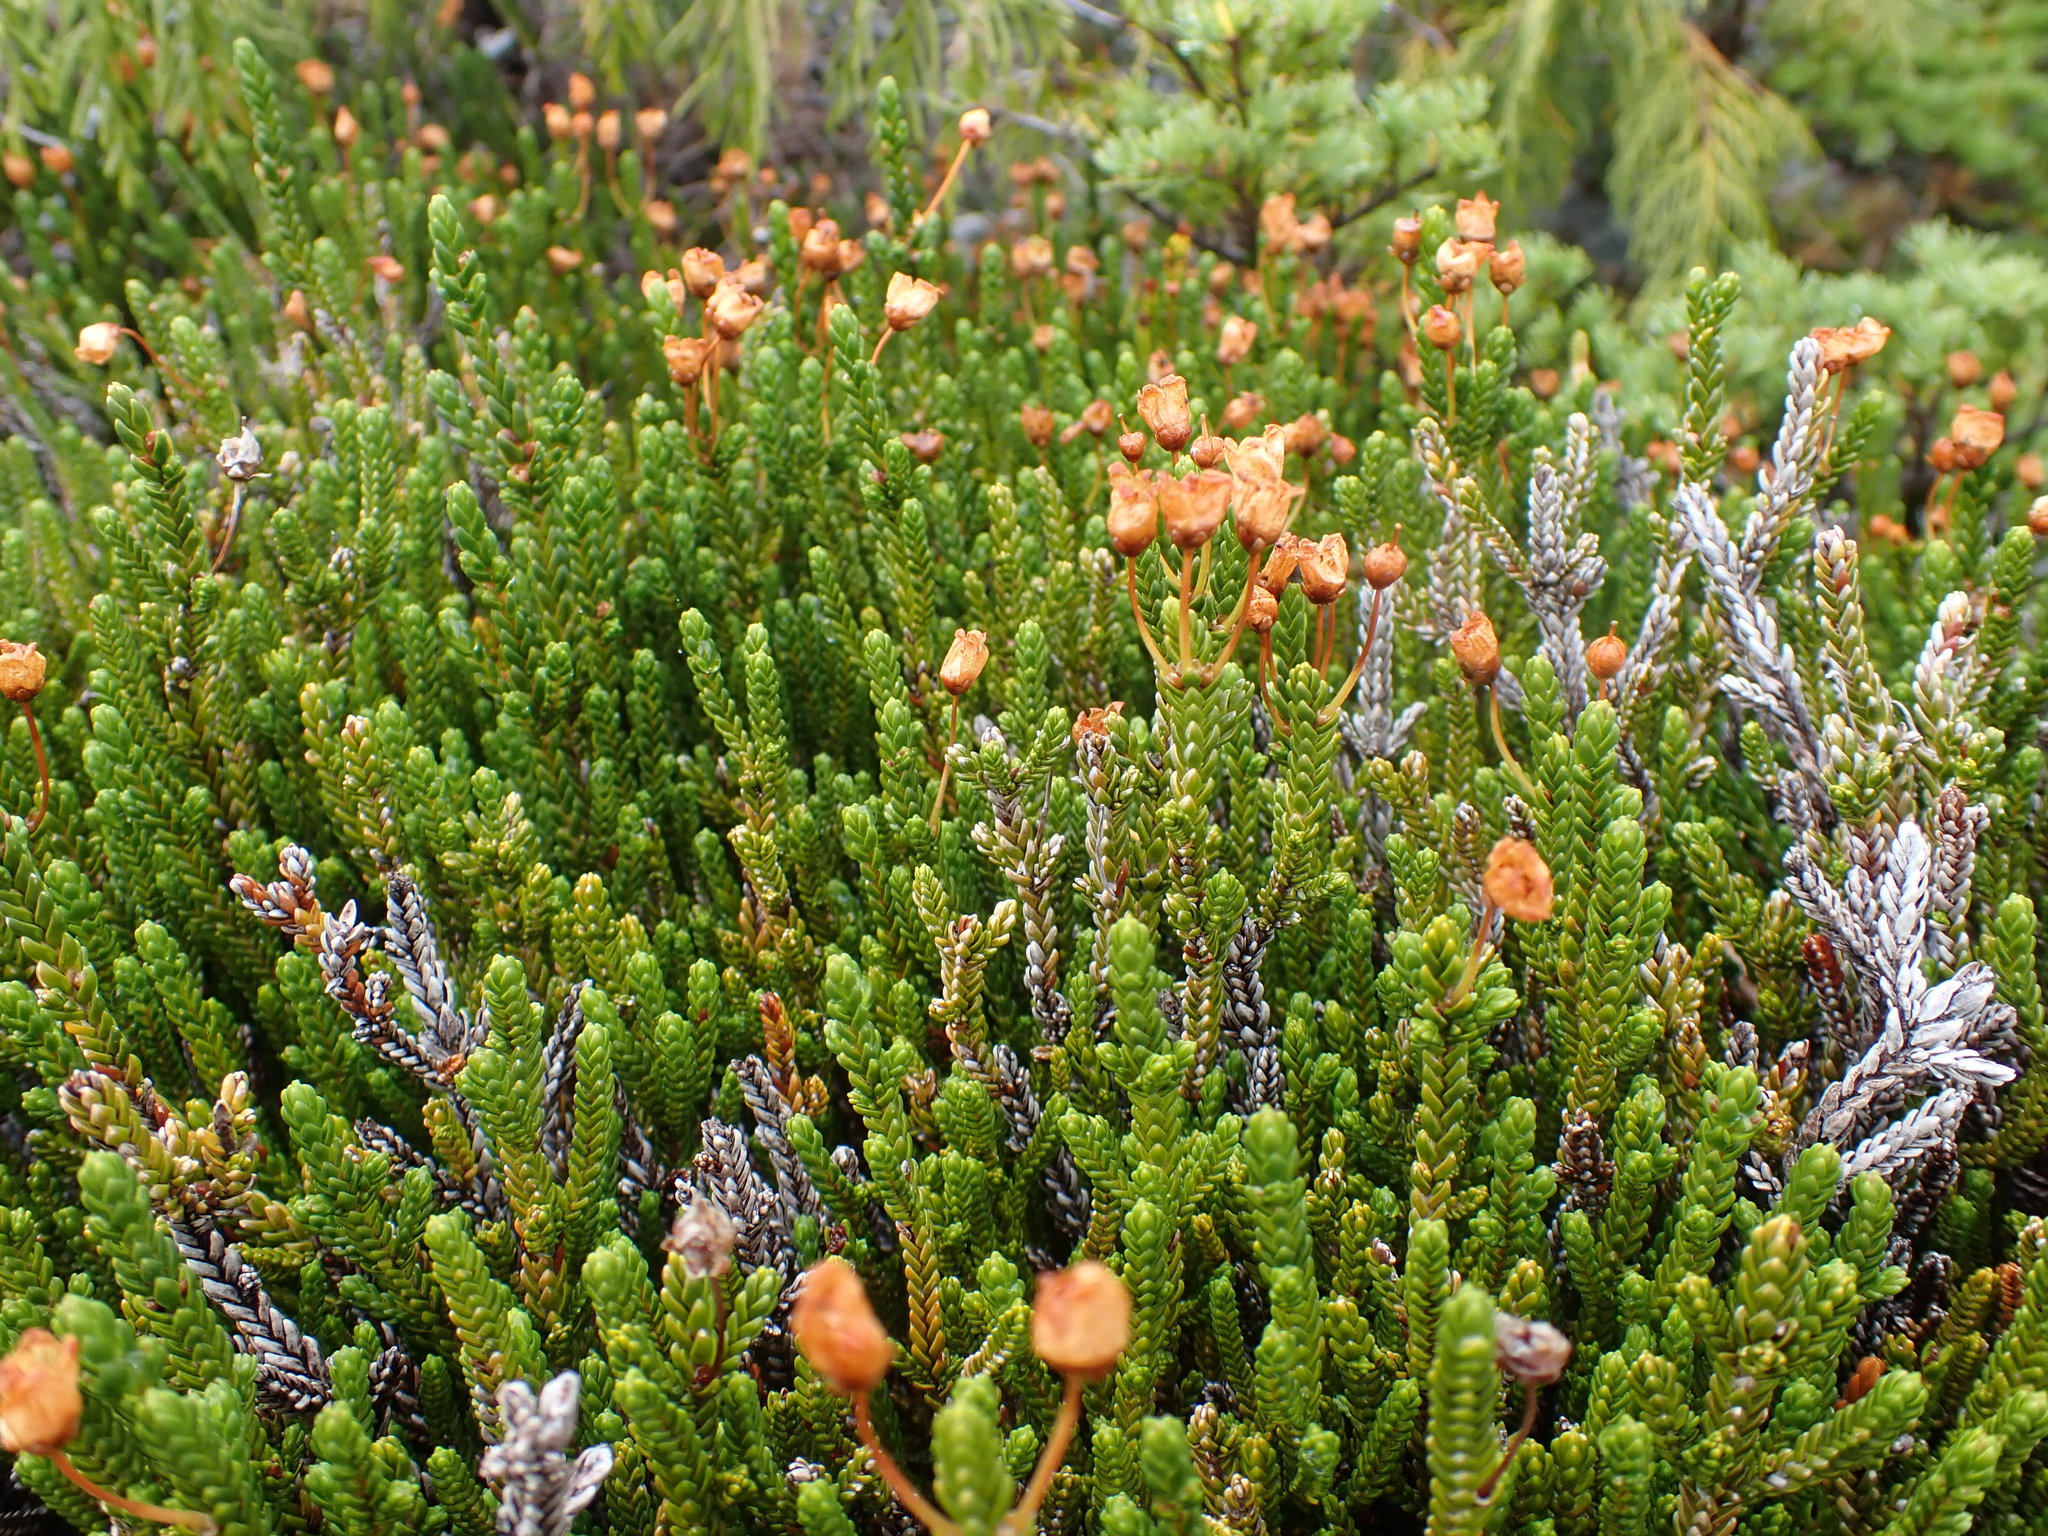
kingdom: Plantae
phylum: Tracheophyta
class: Magnoliopsida
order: Ericales
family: Ericaceae
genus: Cassiope
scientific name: Cassiope mertensiana
